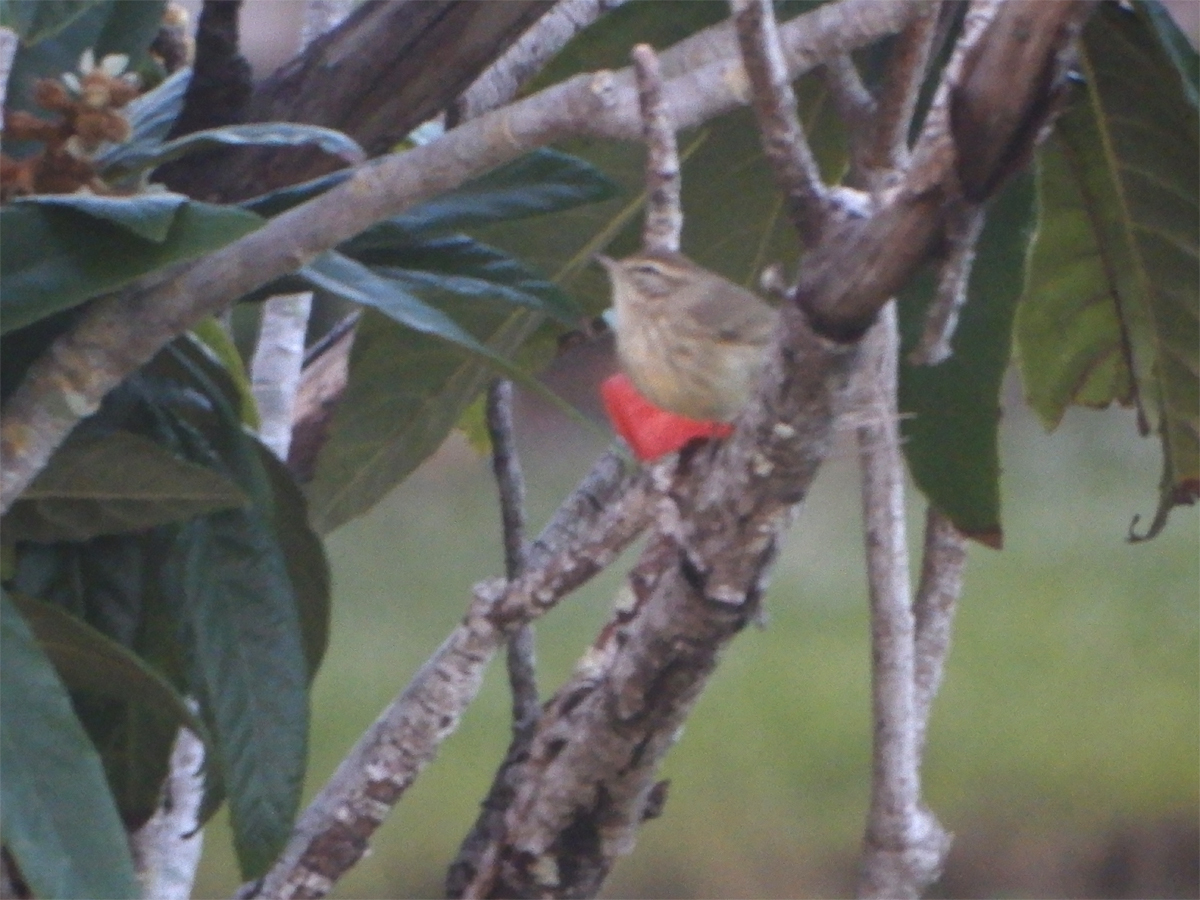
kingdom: Animalia
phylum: Chordata
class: Aves
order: Passeriformes
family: Parulidae
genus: Setophaga
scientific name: Setophaga palmarum
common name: Palm warbler
